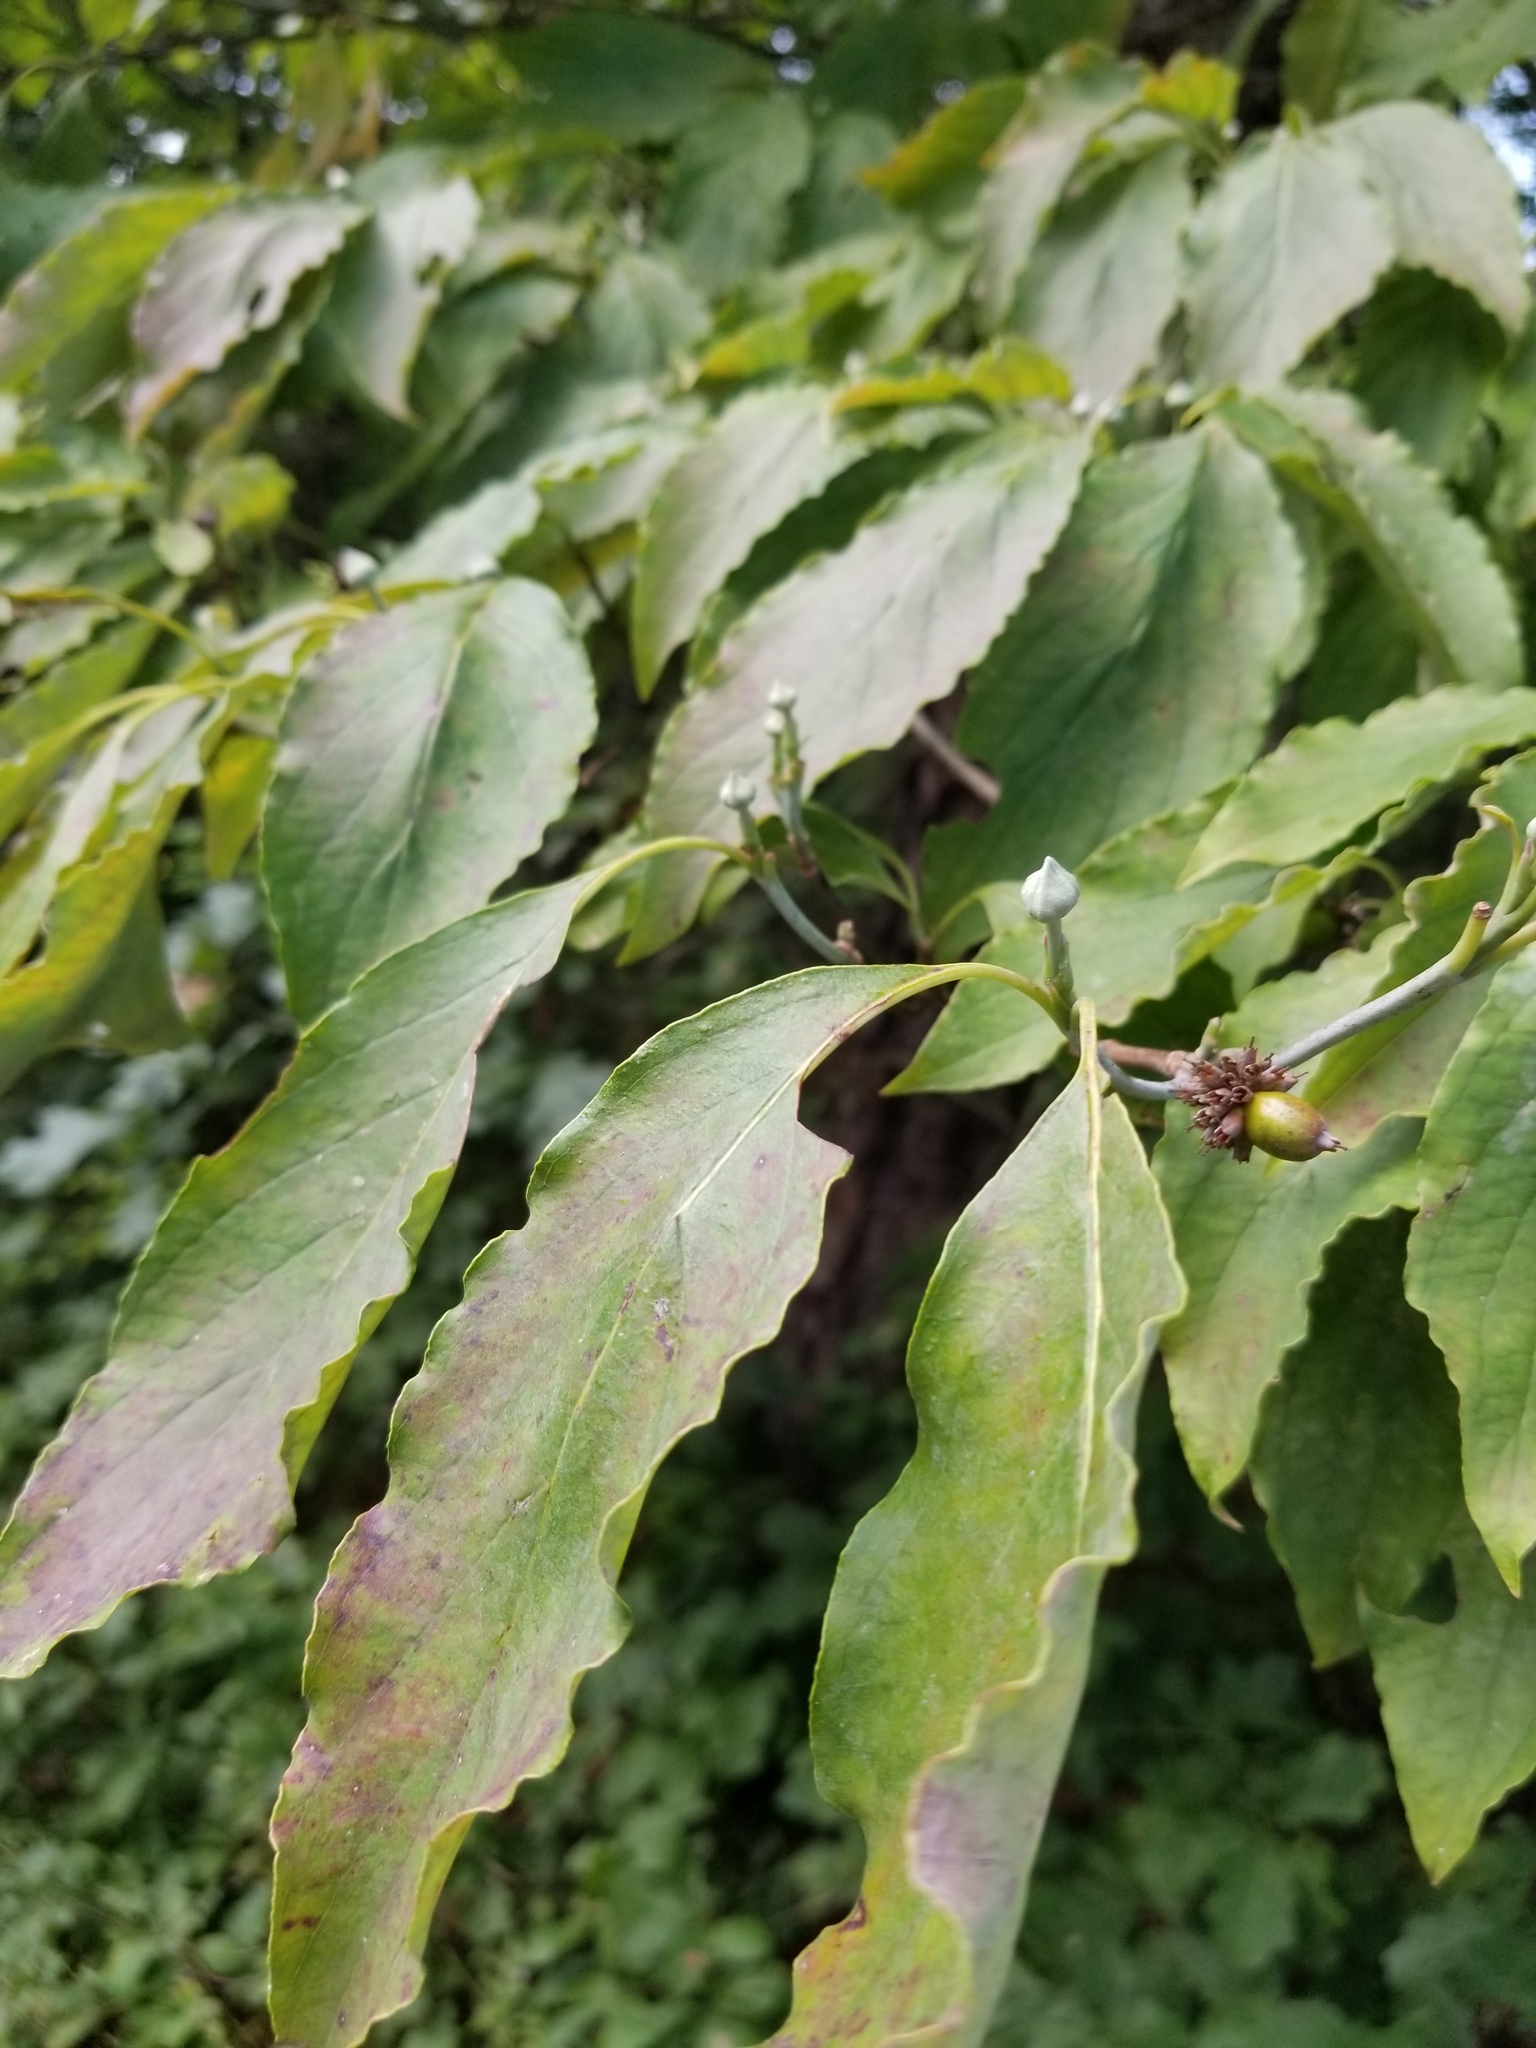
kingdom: Plantae
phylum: Tracheophyta
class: Magnoliopsida
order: Cornales
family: Cornaceae
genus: Cornus
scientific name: Cornus florida
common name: Flowering dogwood
